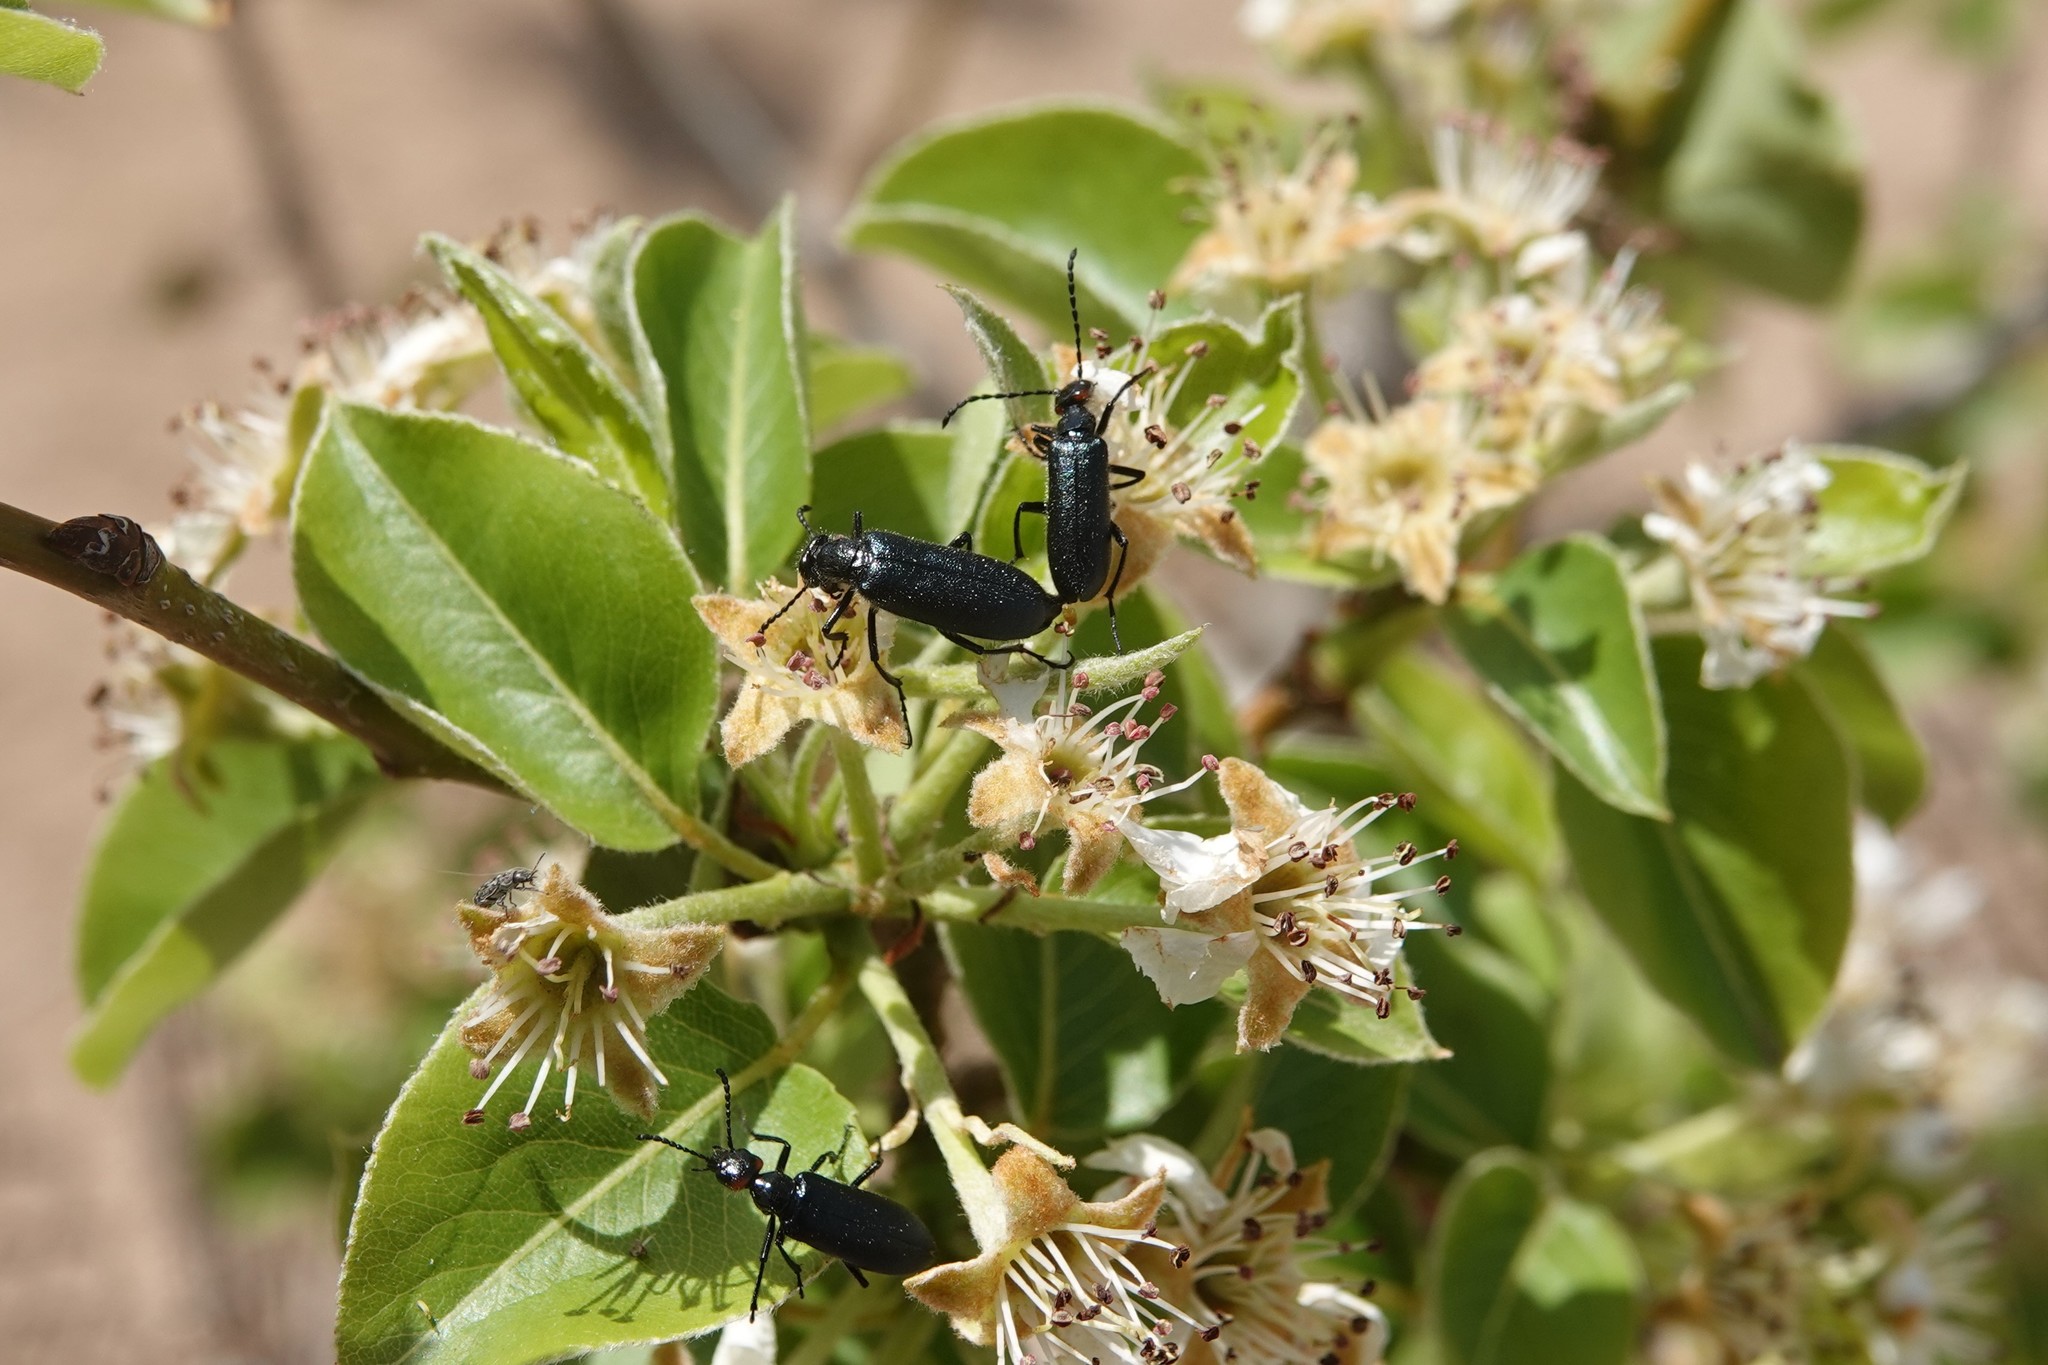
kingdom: Animalia
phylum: Arthropoda
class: Insecta
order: Coleoptera
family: Meloidae
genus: Lytta
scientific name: Lytta auriculata
